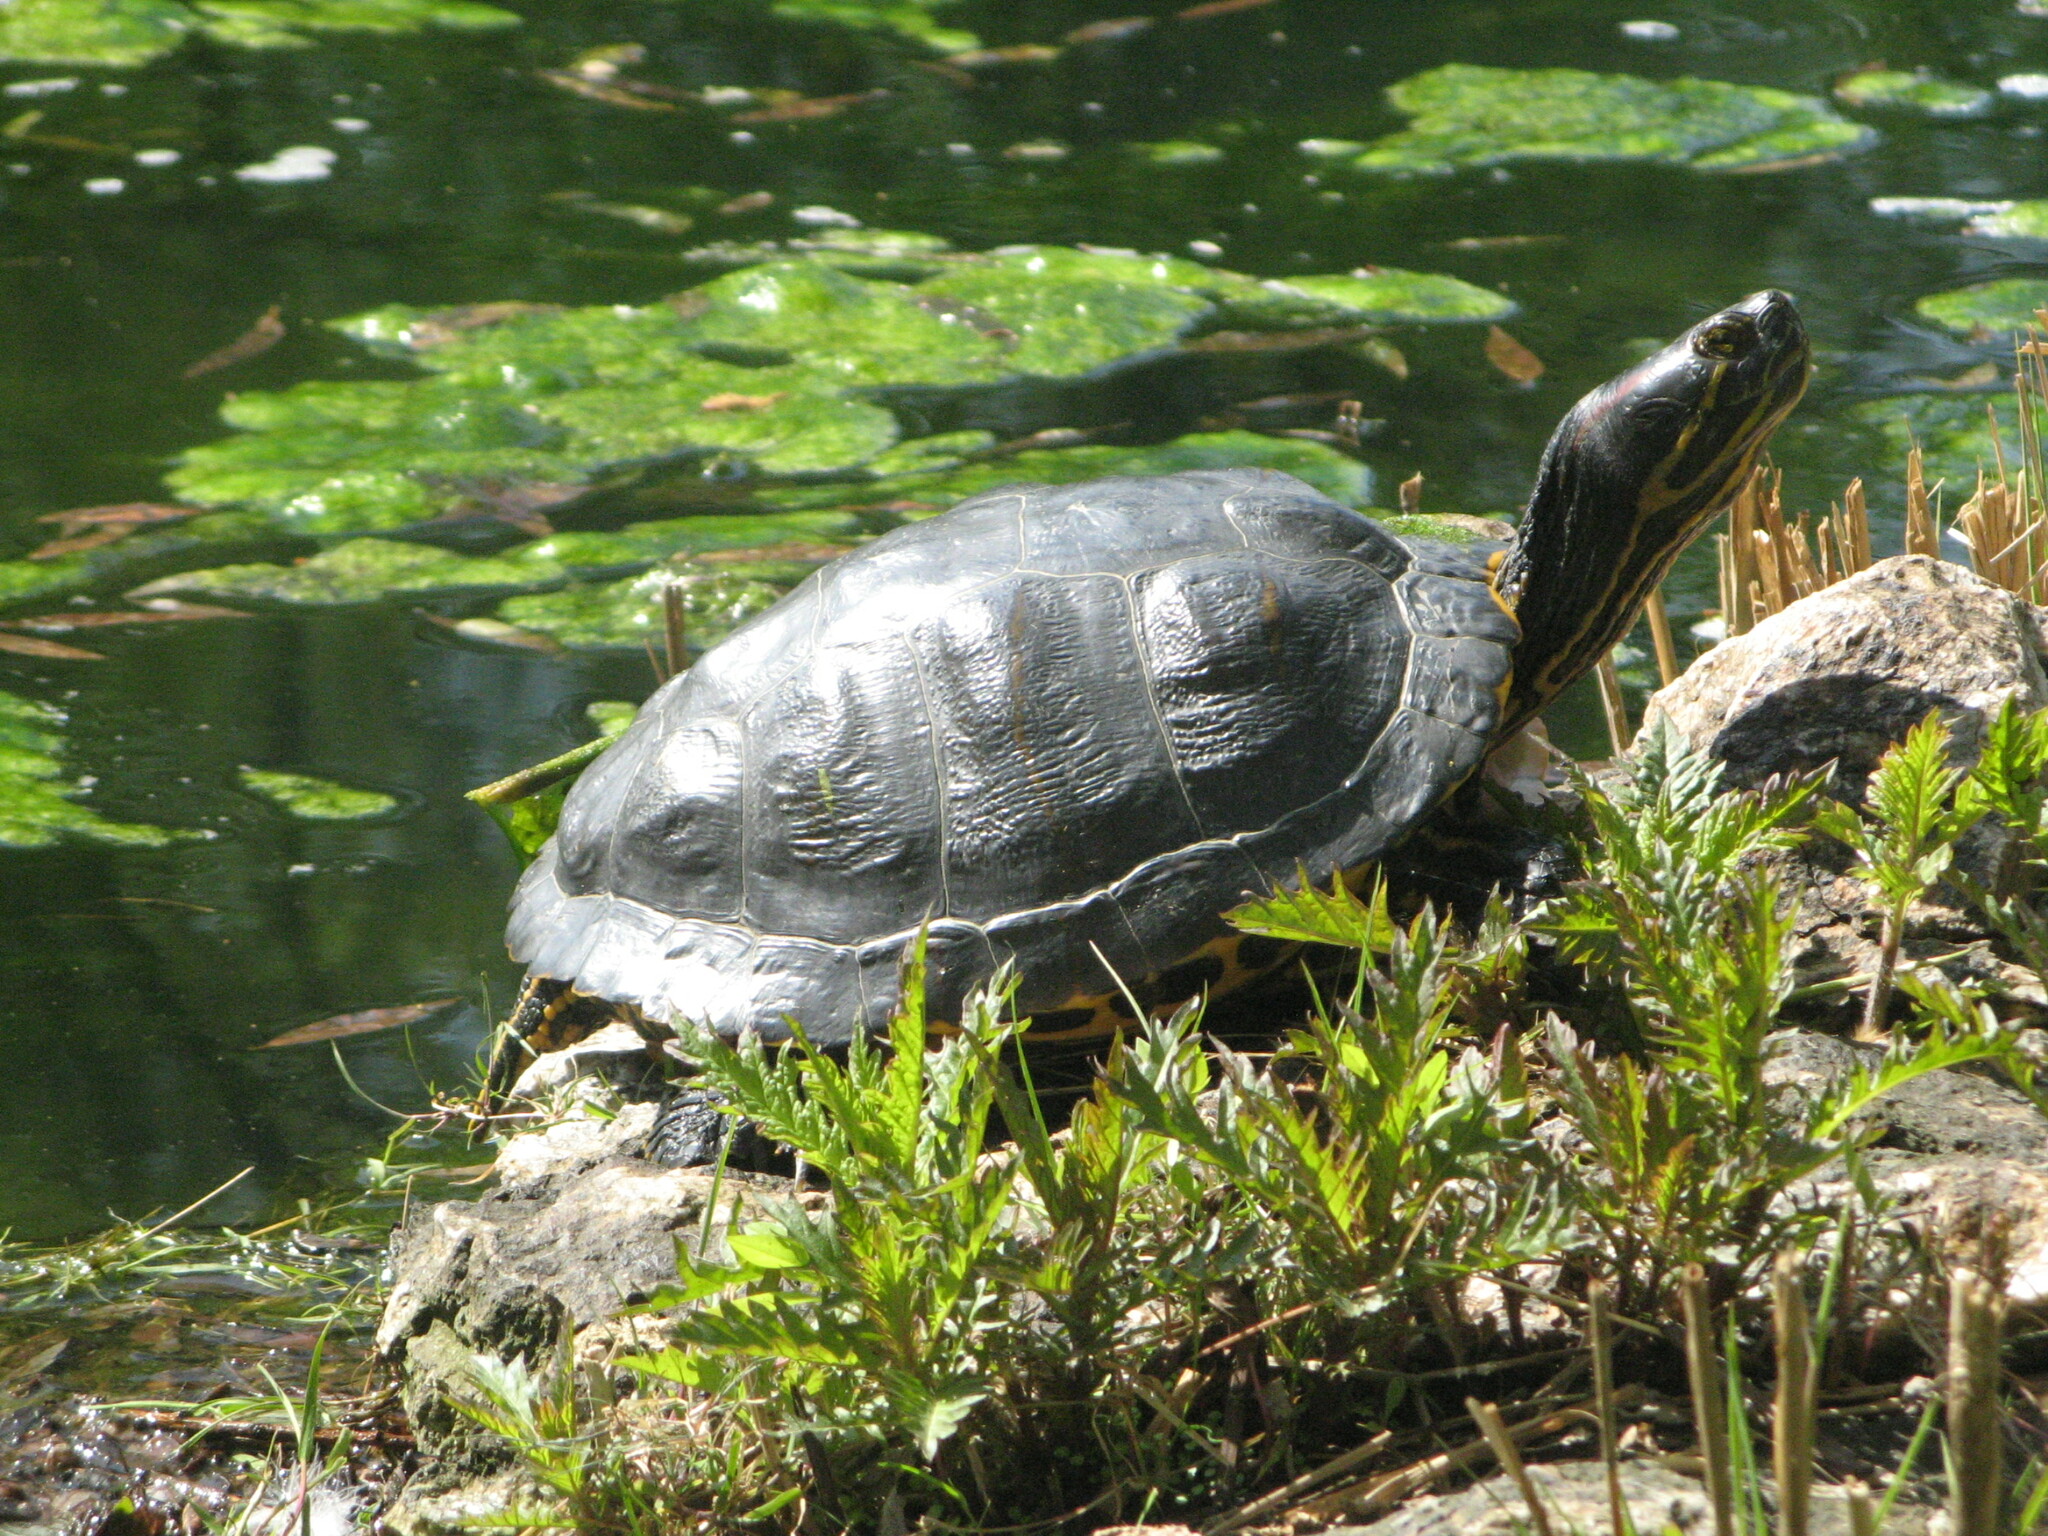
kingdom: Animalia
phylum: Chordata
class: Testudines
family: Emydidae
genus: Trachemys
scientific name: Trachemys scripta
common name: Slider
